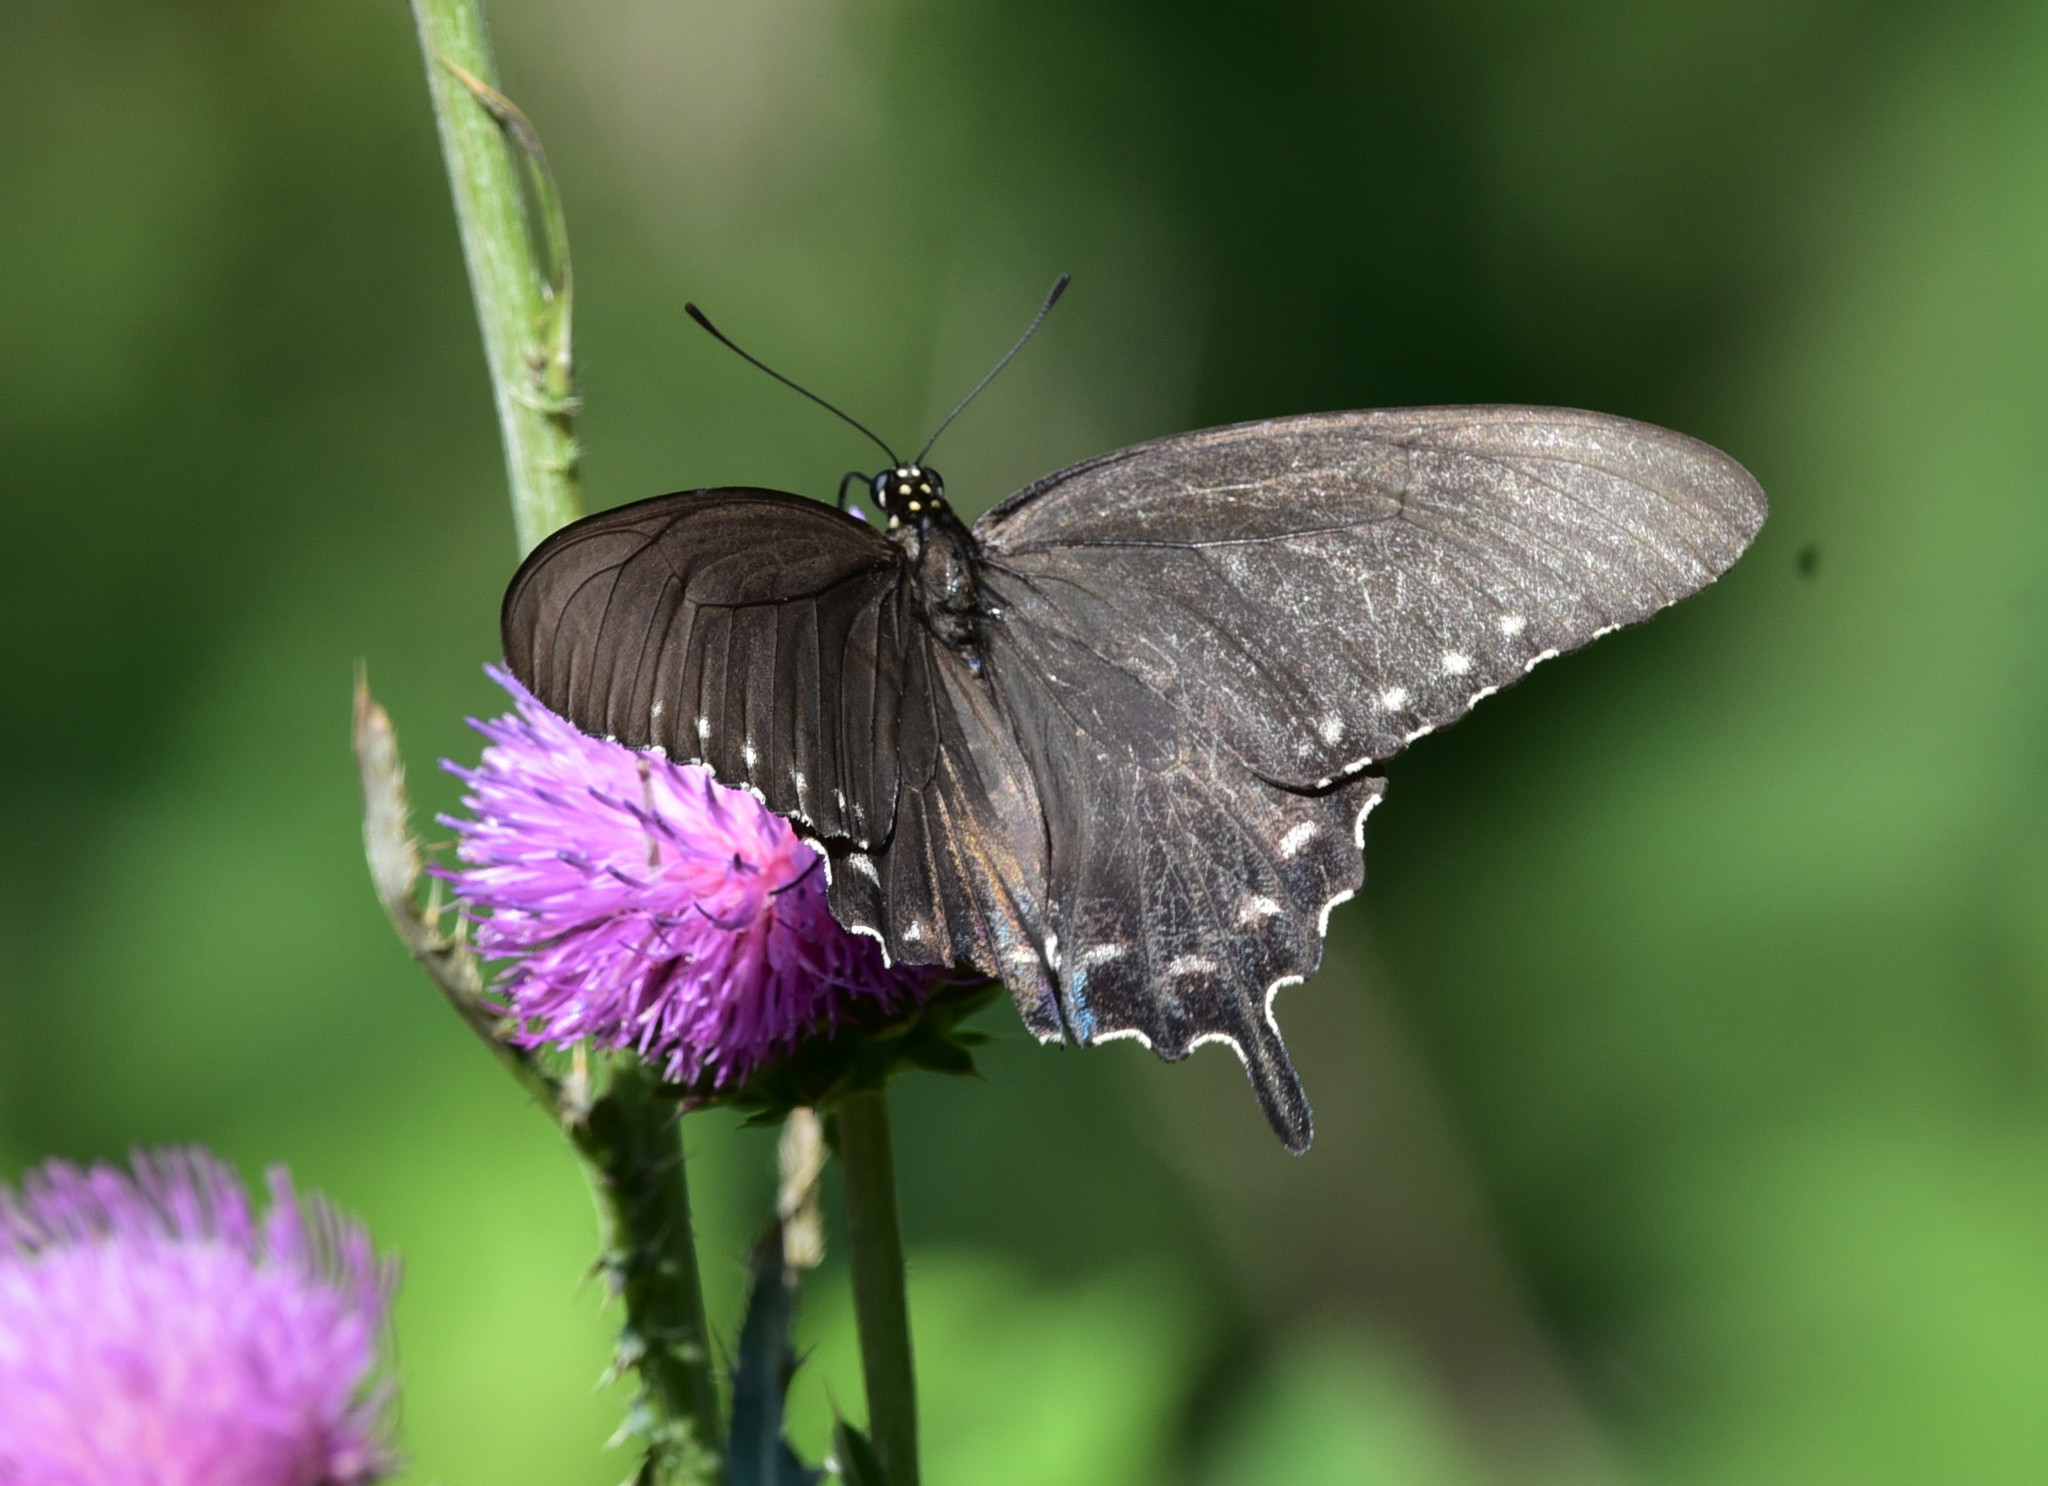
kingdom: Animalia
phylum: Arthropoda
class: Insecta
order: Lepidoptera
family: Papilionidae
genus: Battus
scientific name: Battus philenor
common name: Pipevine swallowtail
